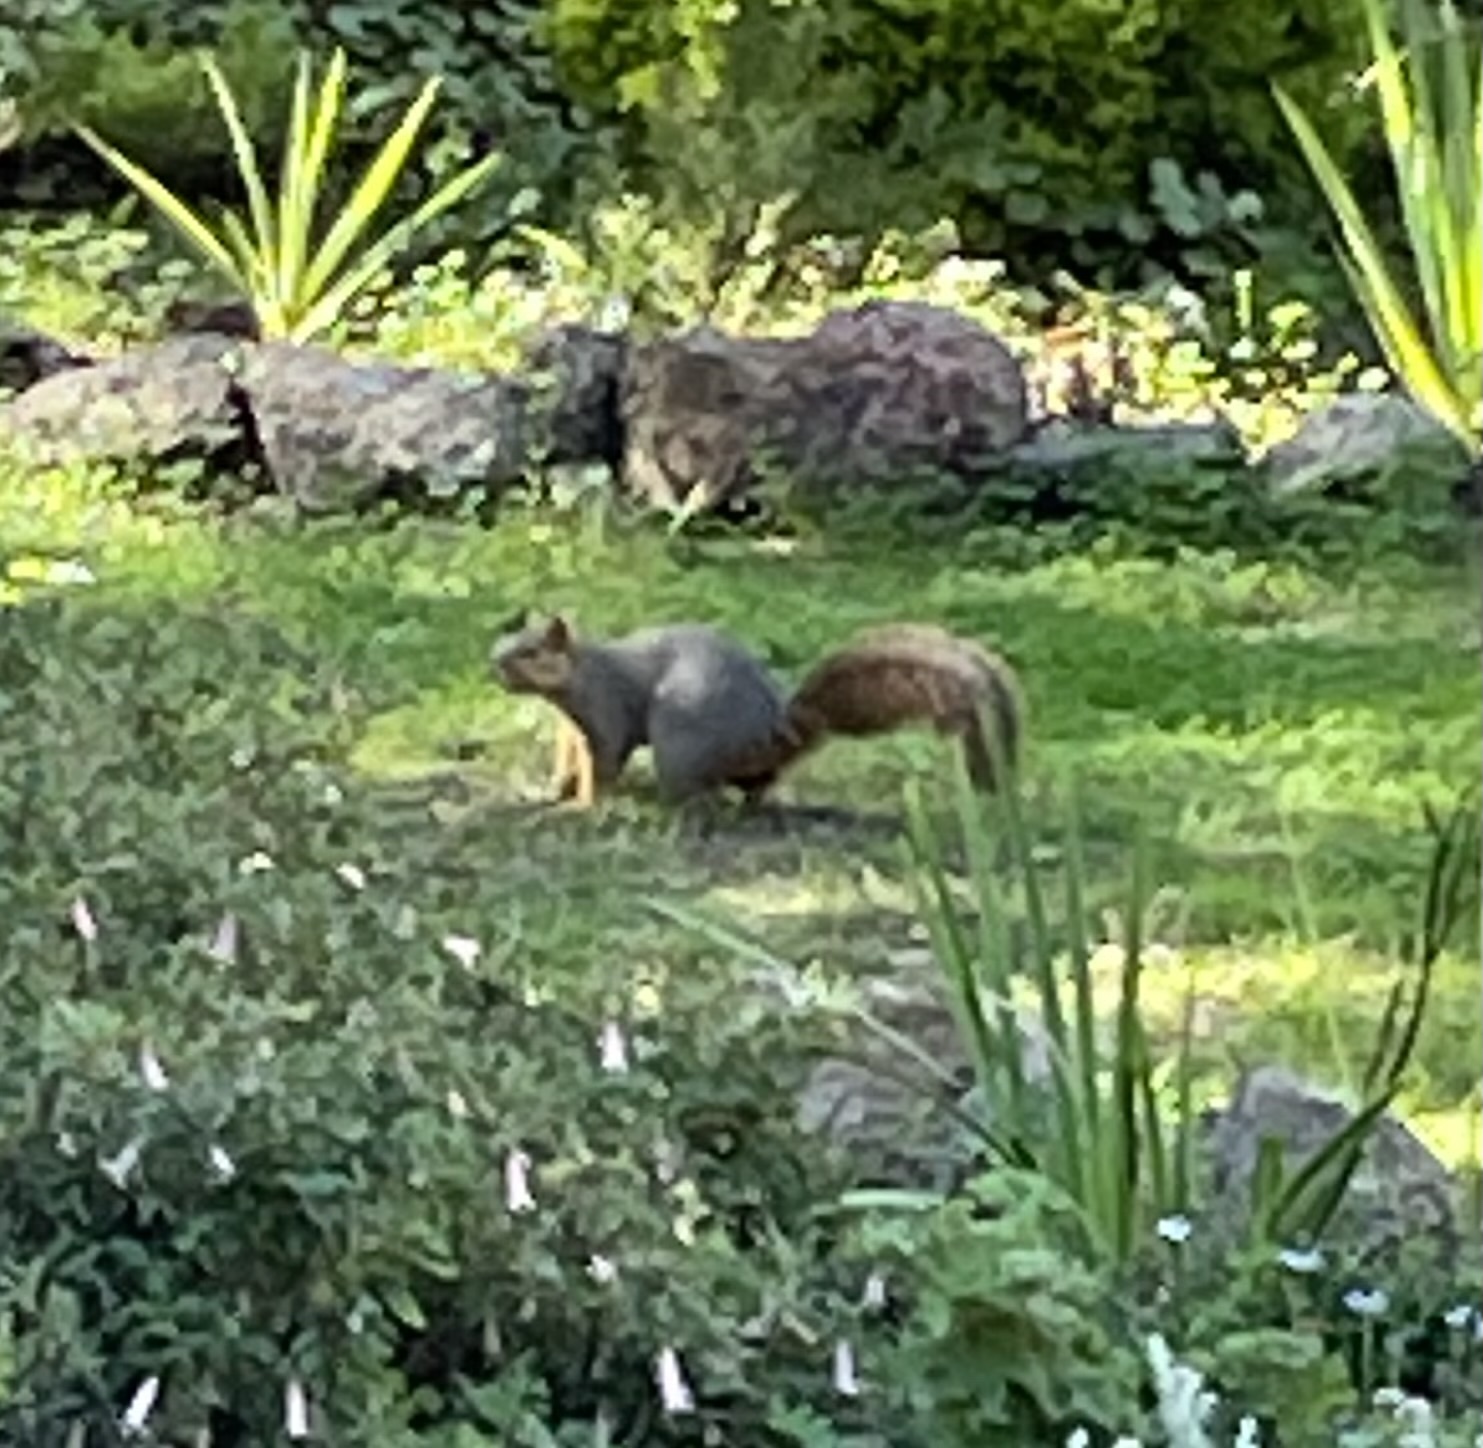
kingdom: Animalia
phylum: Chordata
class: Mammalia
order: Rodentia
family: Sciuridae
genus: Sciurus
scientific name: Sciurus niger
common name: Fox squirrel
